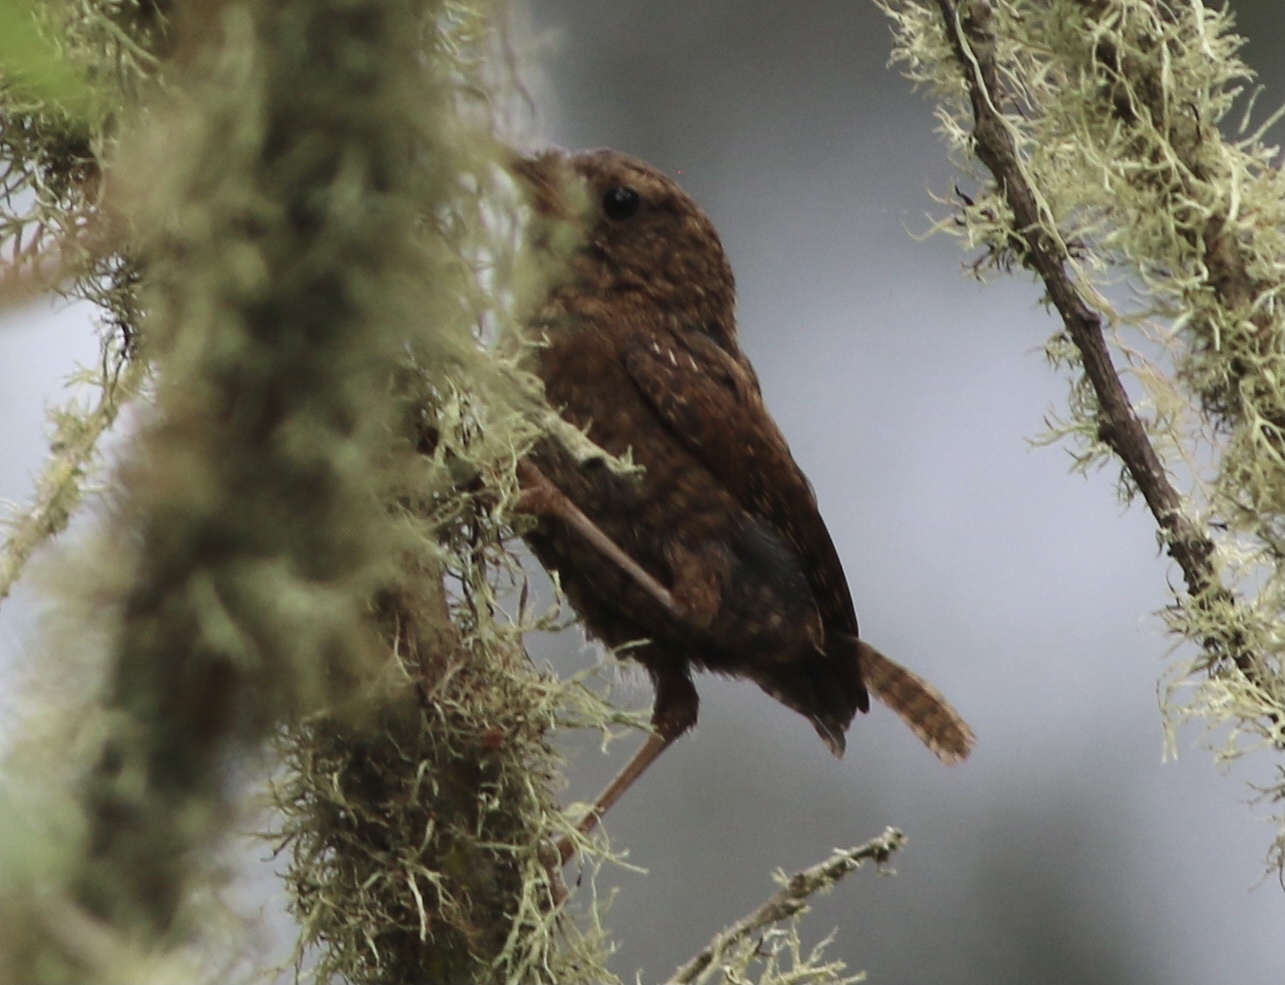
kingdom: Animalia
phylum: Chordata
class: Aves
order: Passeriformes
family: Troglodytidae
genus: Troglodytes
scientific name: Troglodytes pacificus
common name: Pacific wren
